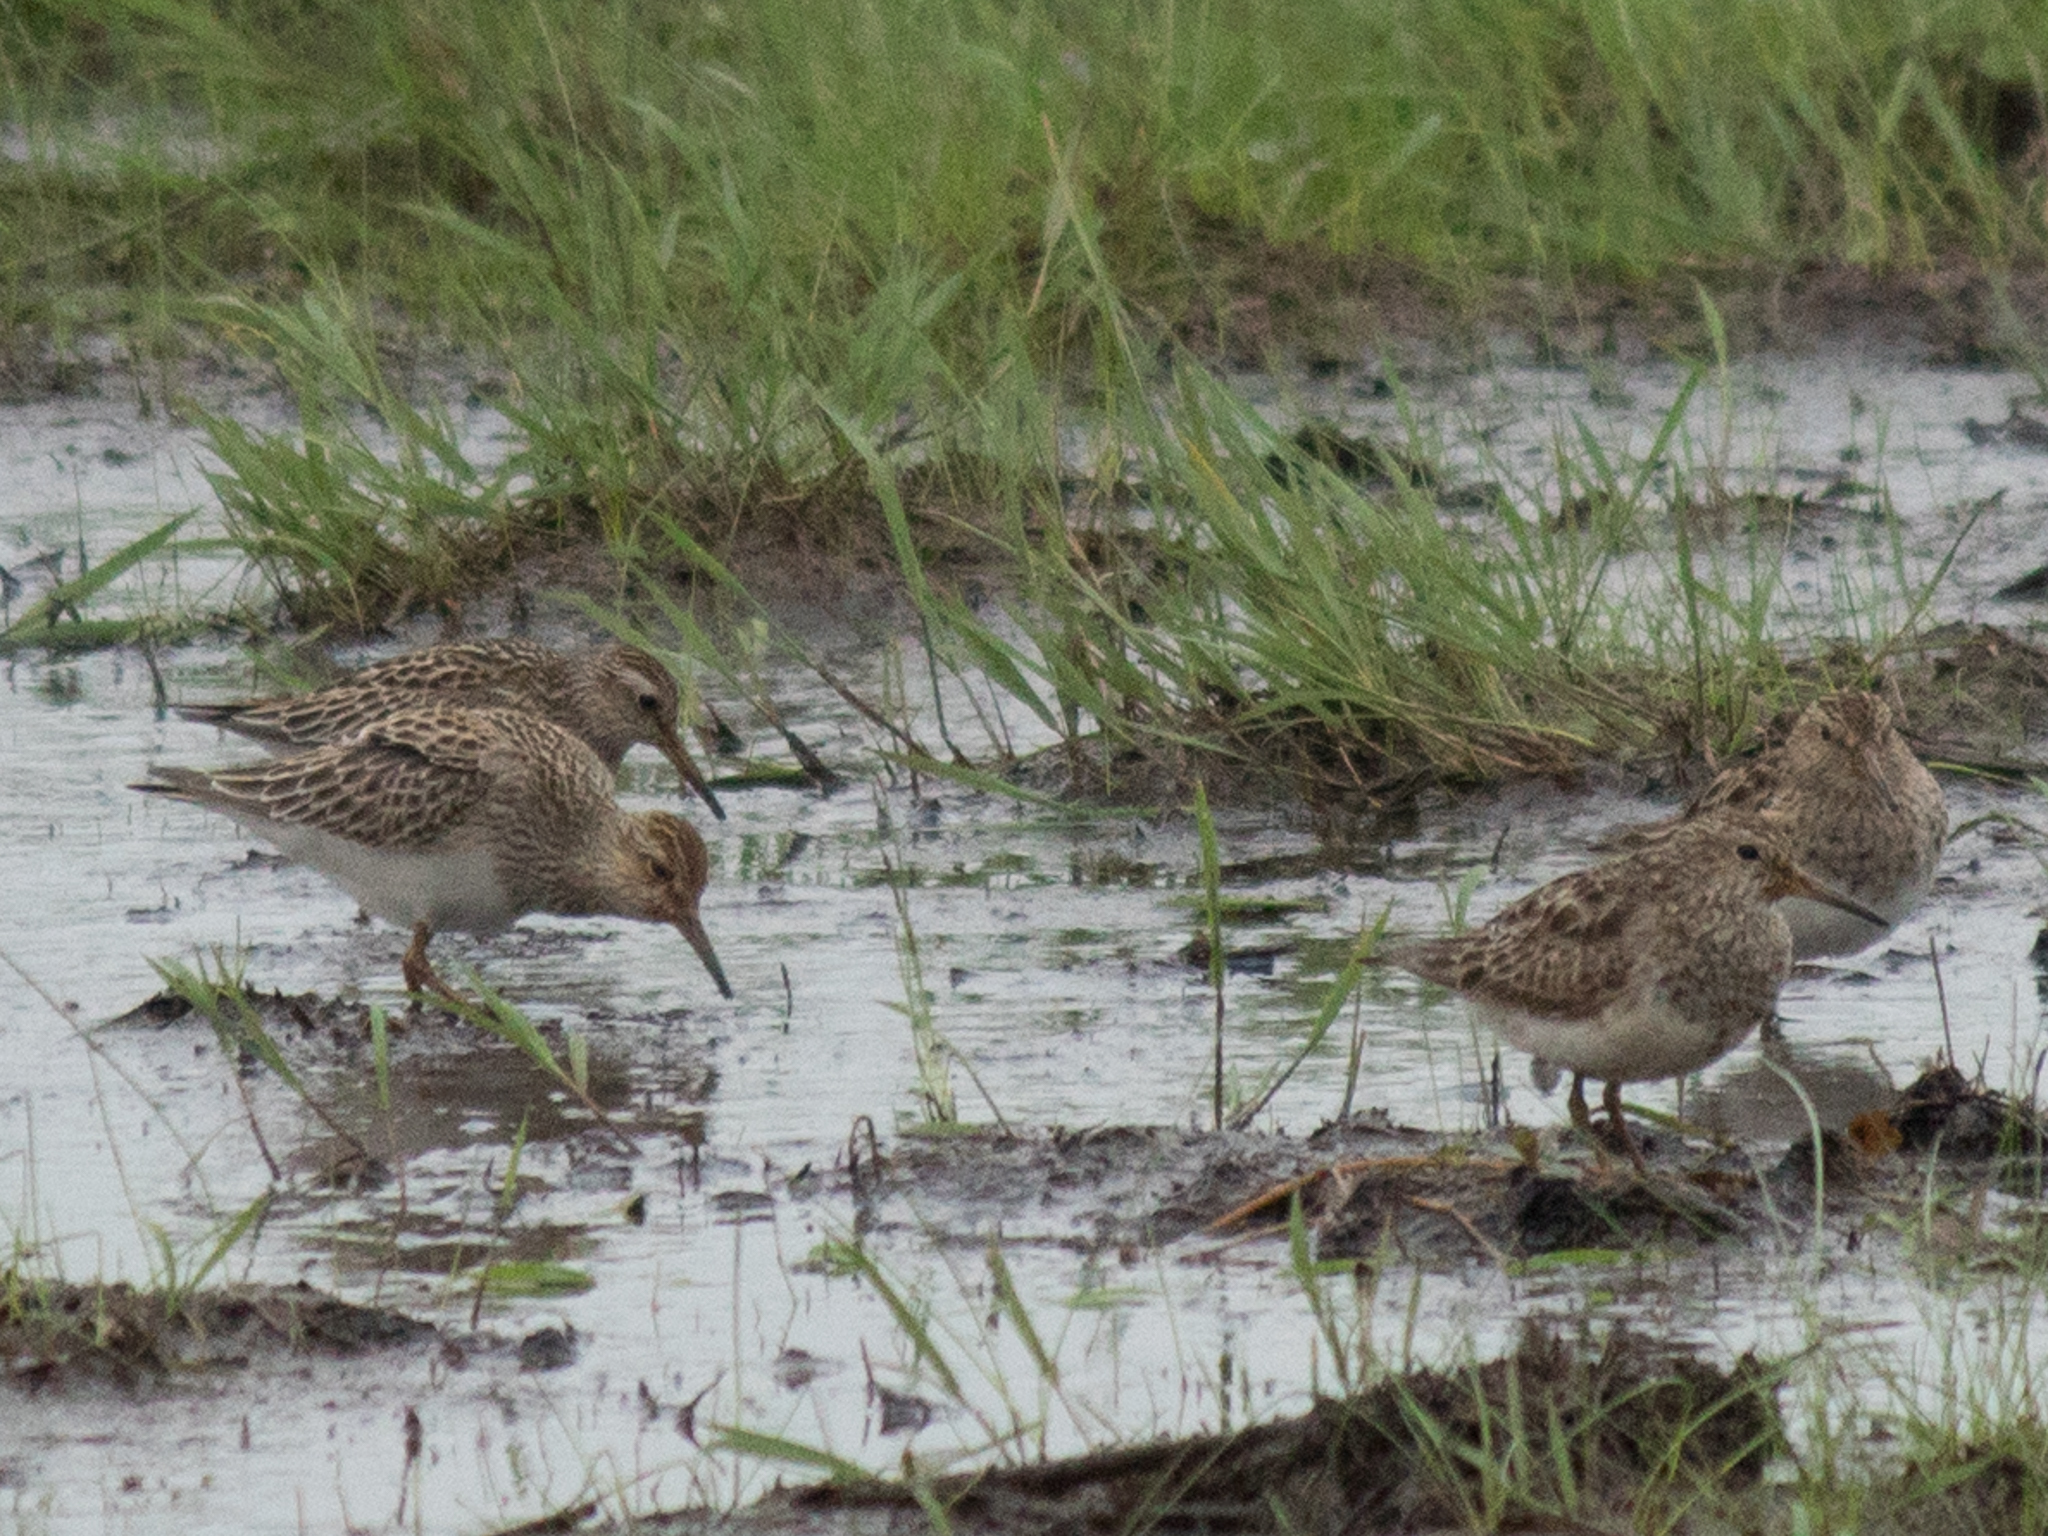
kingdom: Animalia
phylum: Chordata
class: Aves
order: Charadriiformes
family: Scolopacidae
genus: Calidris
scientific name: Calidris melanotos
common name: Pectoral sandpiper
